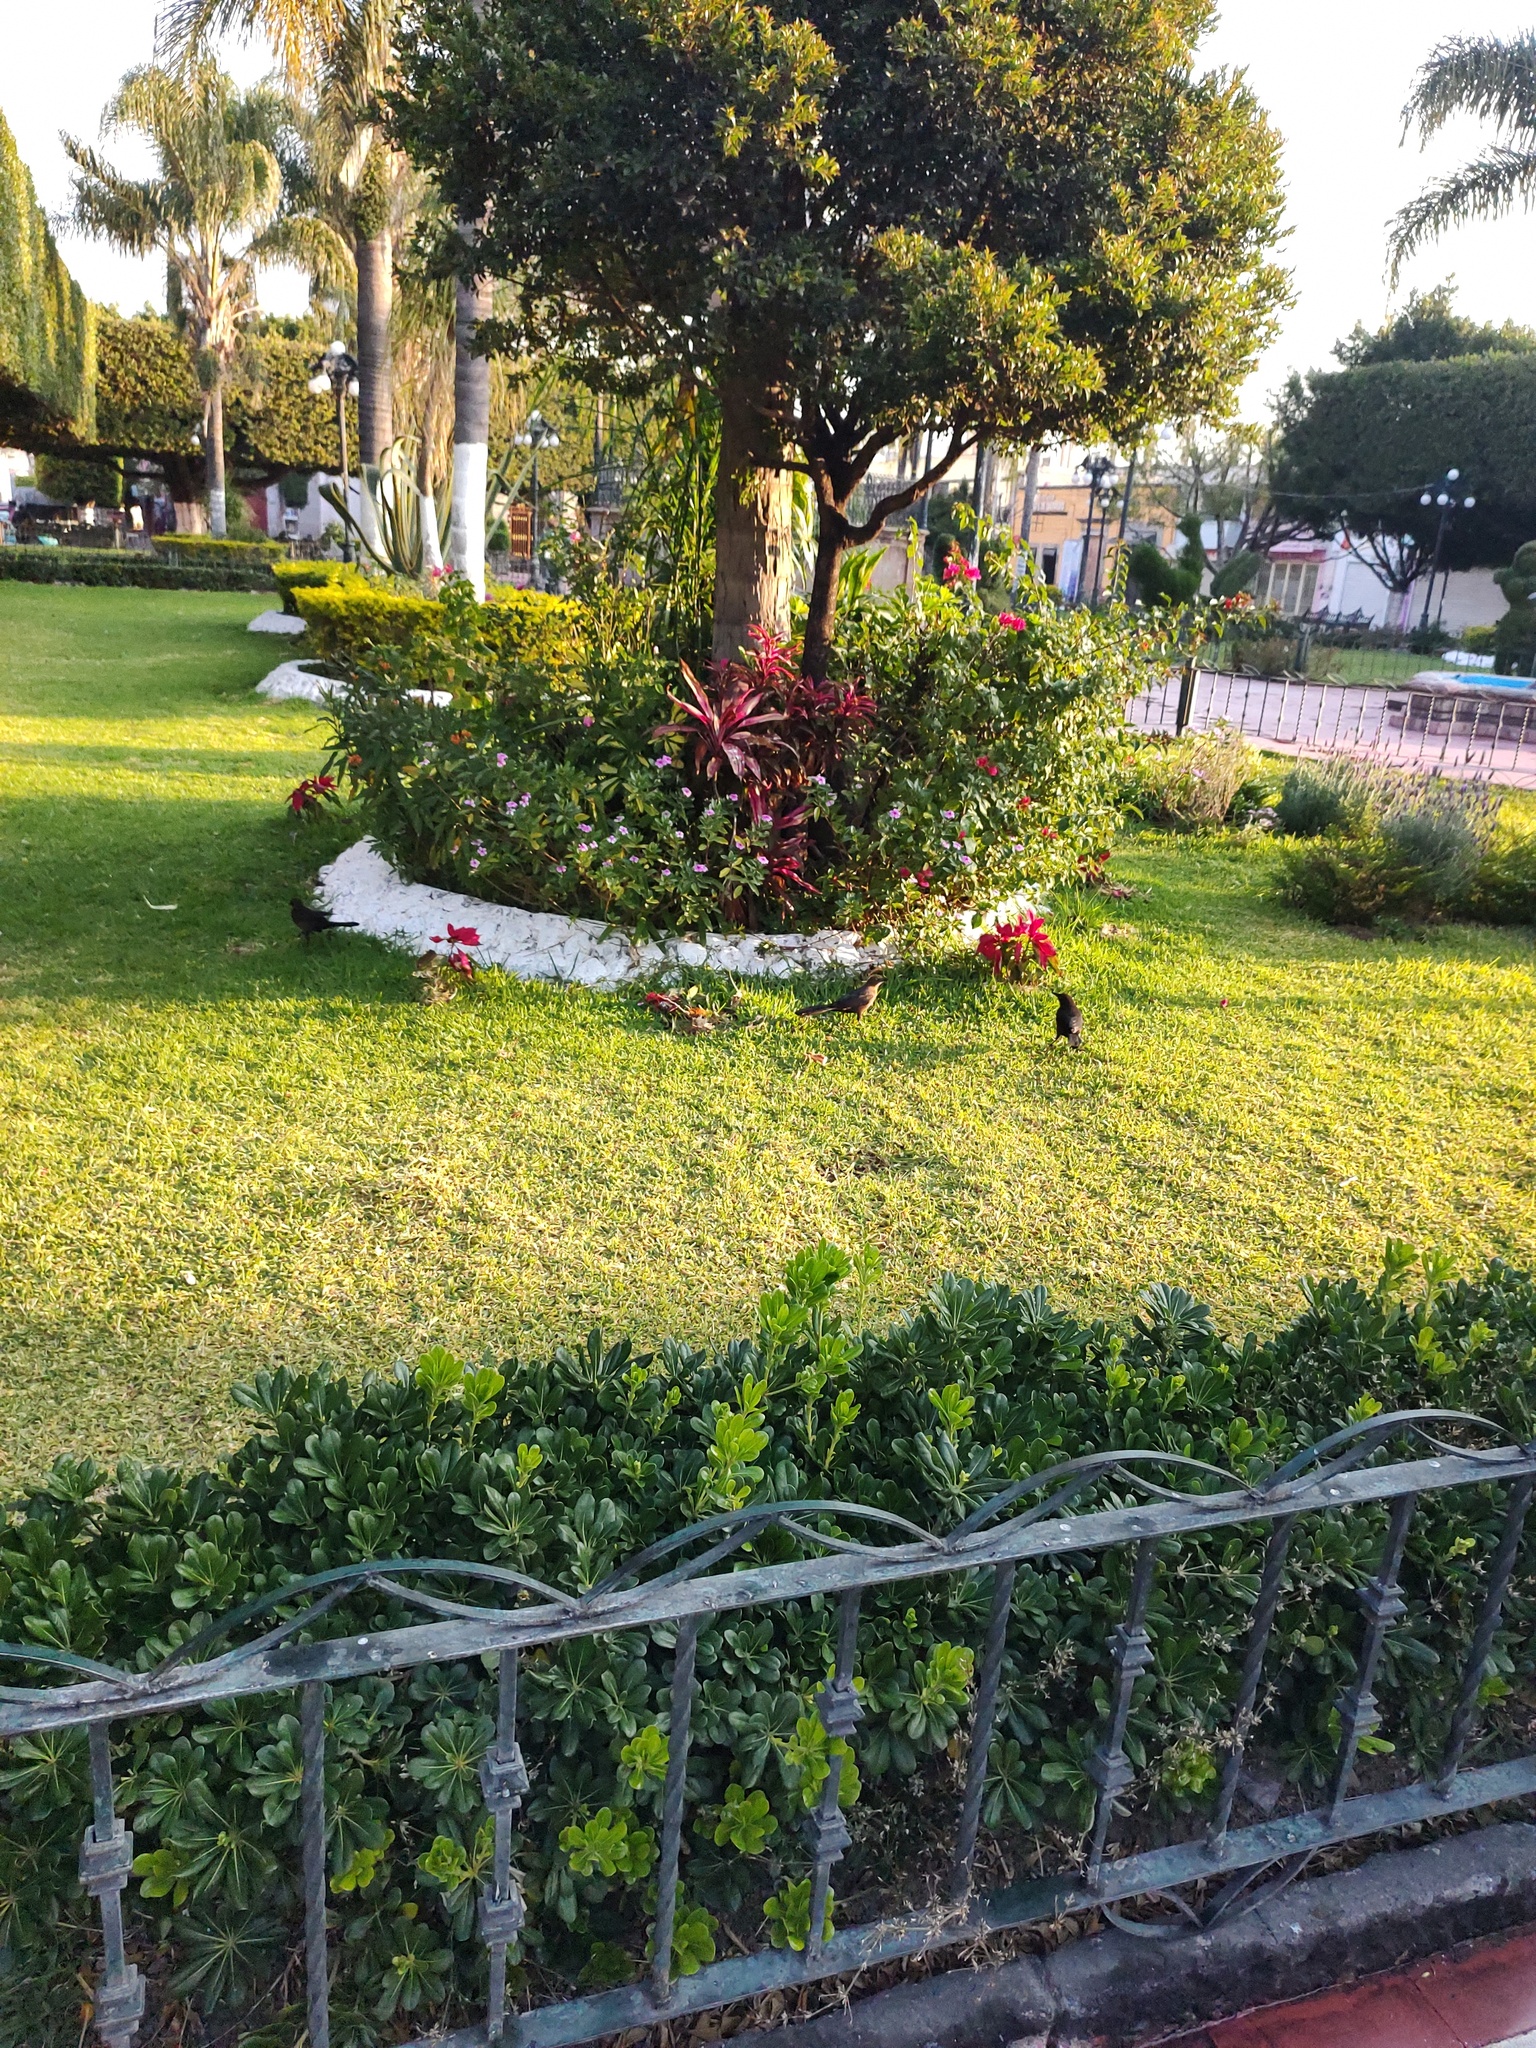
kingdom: Animalia
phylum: Chordata
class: Aves
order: Passeriformes
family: Icteridae
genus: Quiscalus
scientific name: Quiscalus mexicanus
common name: Great-tailed grackle
